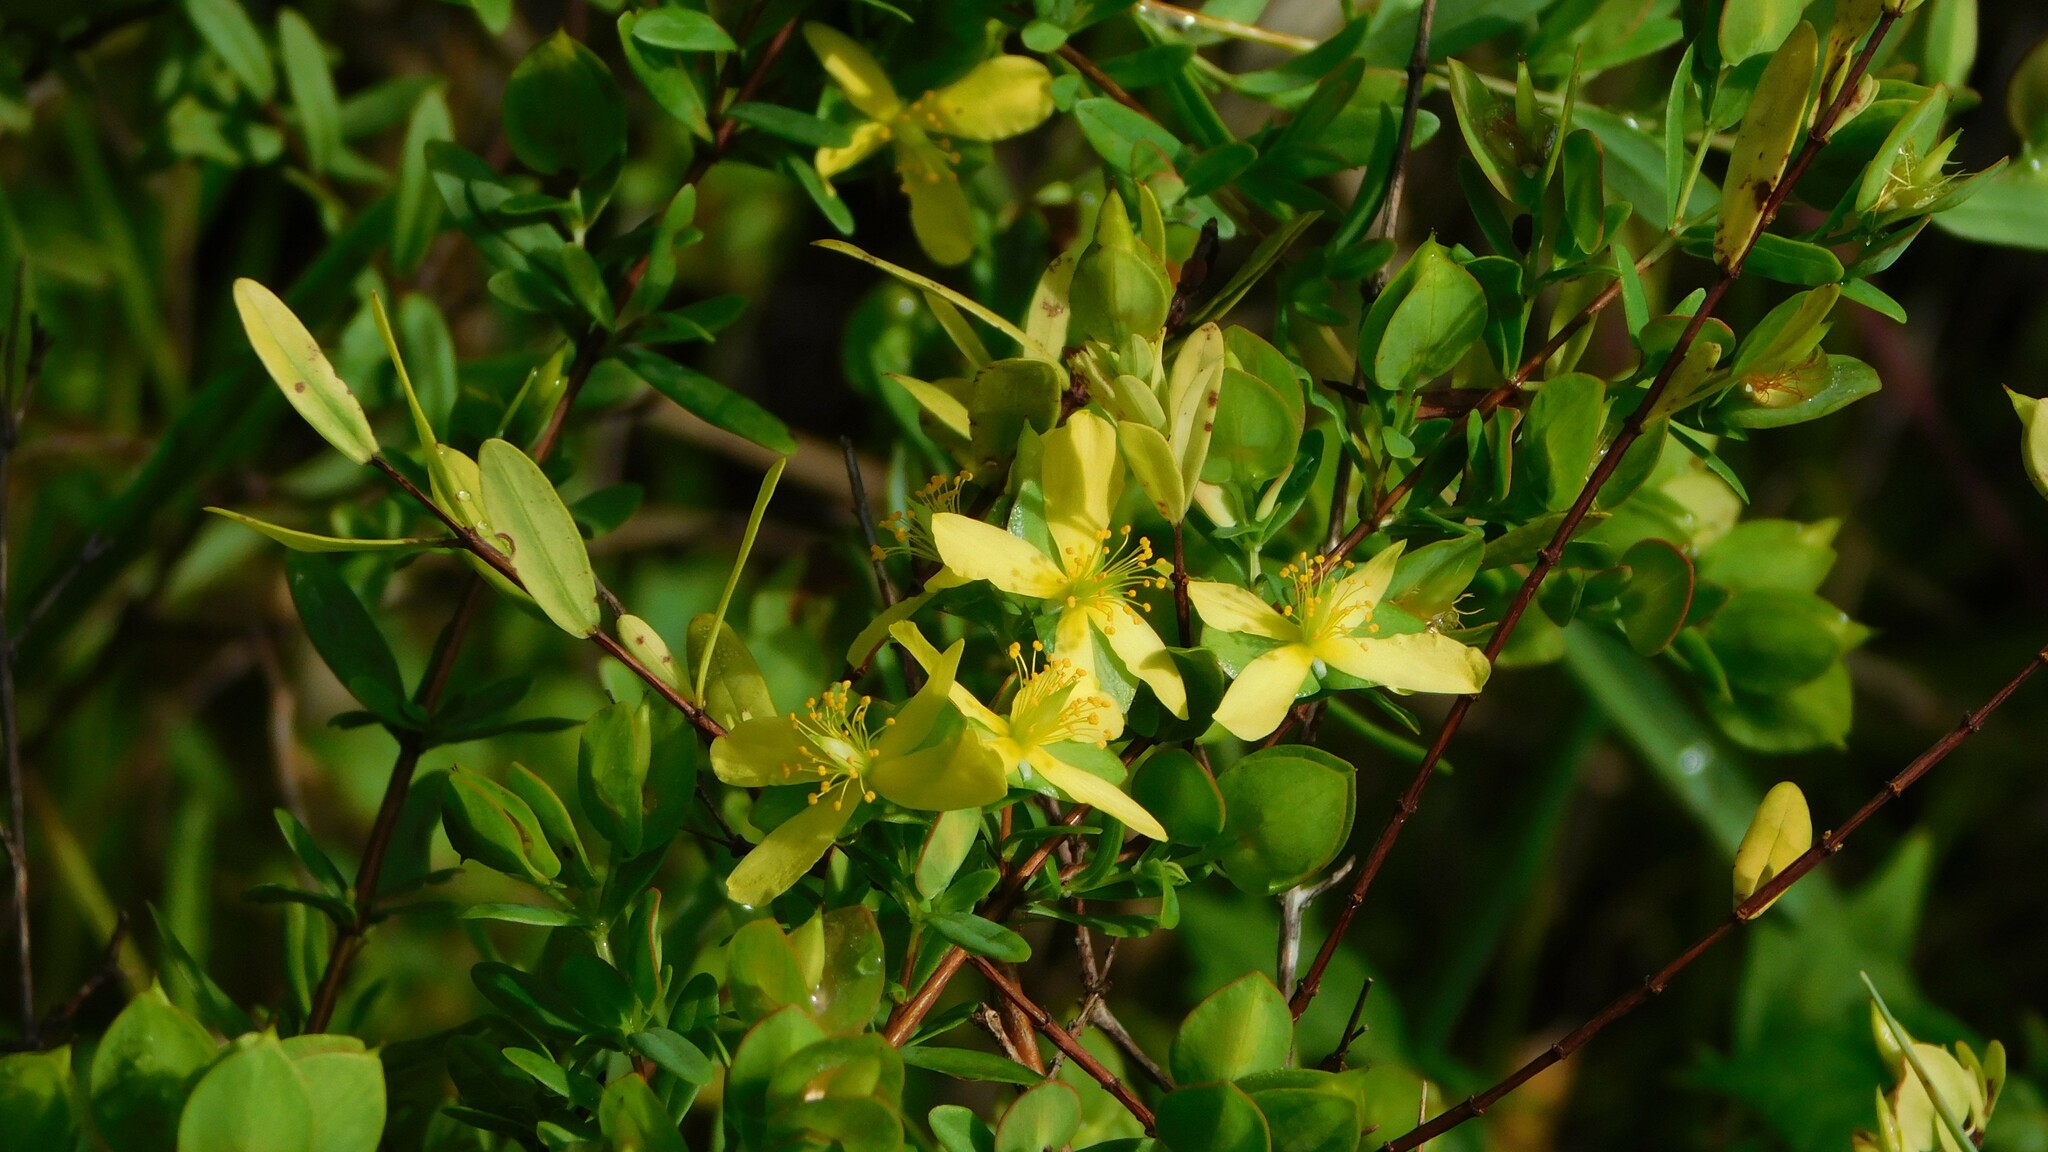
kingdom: Plantae
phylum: Tracheophyta
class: Magnoliopsida
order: Malpighiales
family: Hypericaceae
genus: Hypericum
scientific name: Hypericum hypericoides
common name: St. andrew's cross
